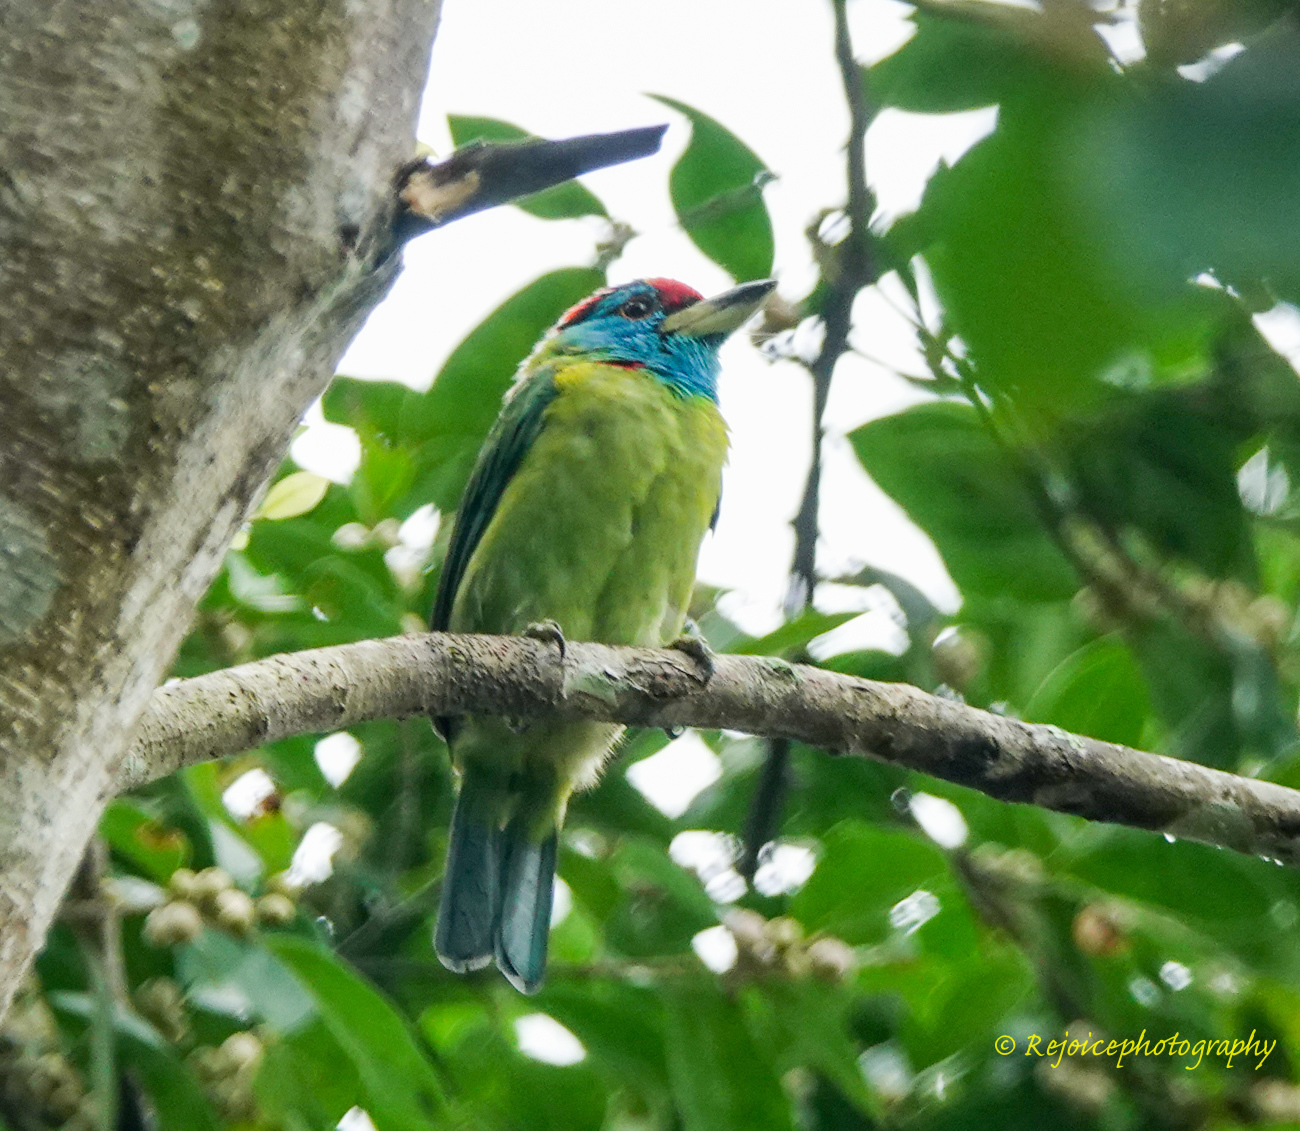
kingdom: Animalia
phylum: Chordata
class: Aves
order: Piciformes
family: Megalaimidae
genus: Psilopogon
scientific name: Psilopogon asiaticus
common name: Blue-throated barbet
